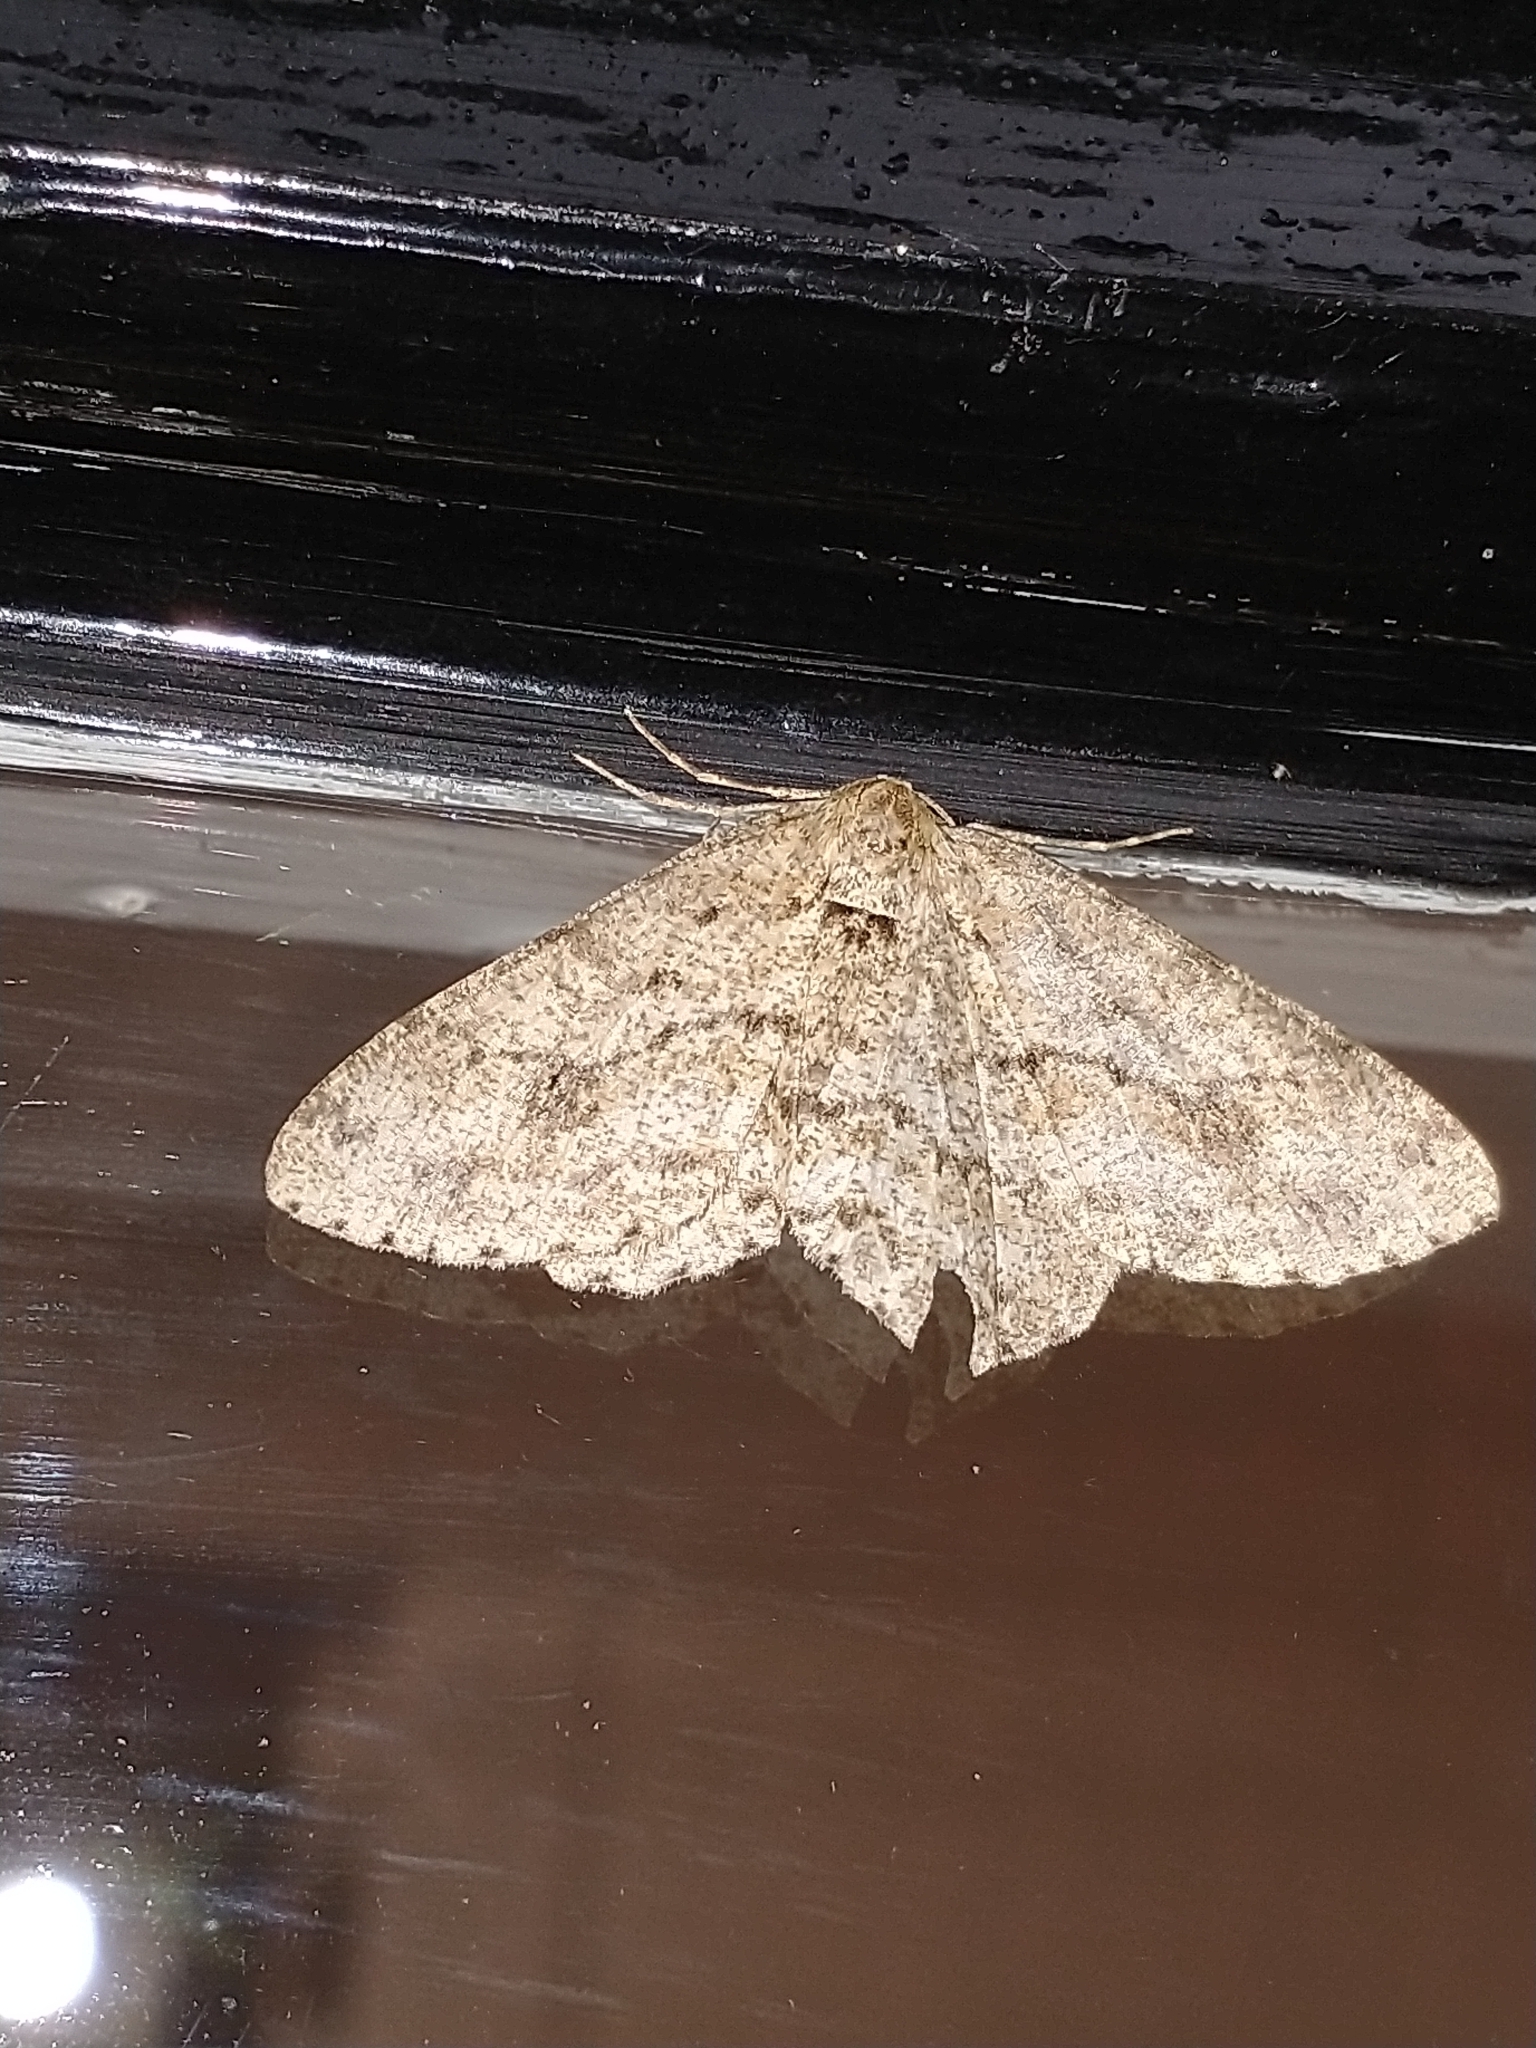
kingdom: Animalia
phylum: Arthropoda
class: Insecta
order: Lepidoptera
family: Geometridae
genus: Ectropis
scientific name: Ectropis crepuscularia
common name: Engrailed
